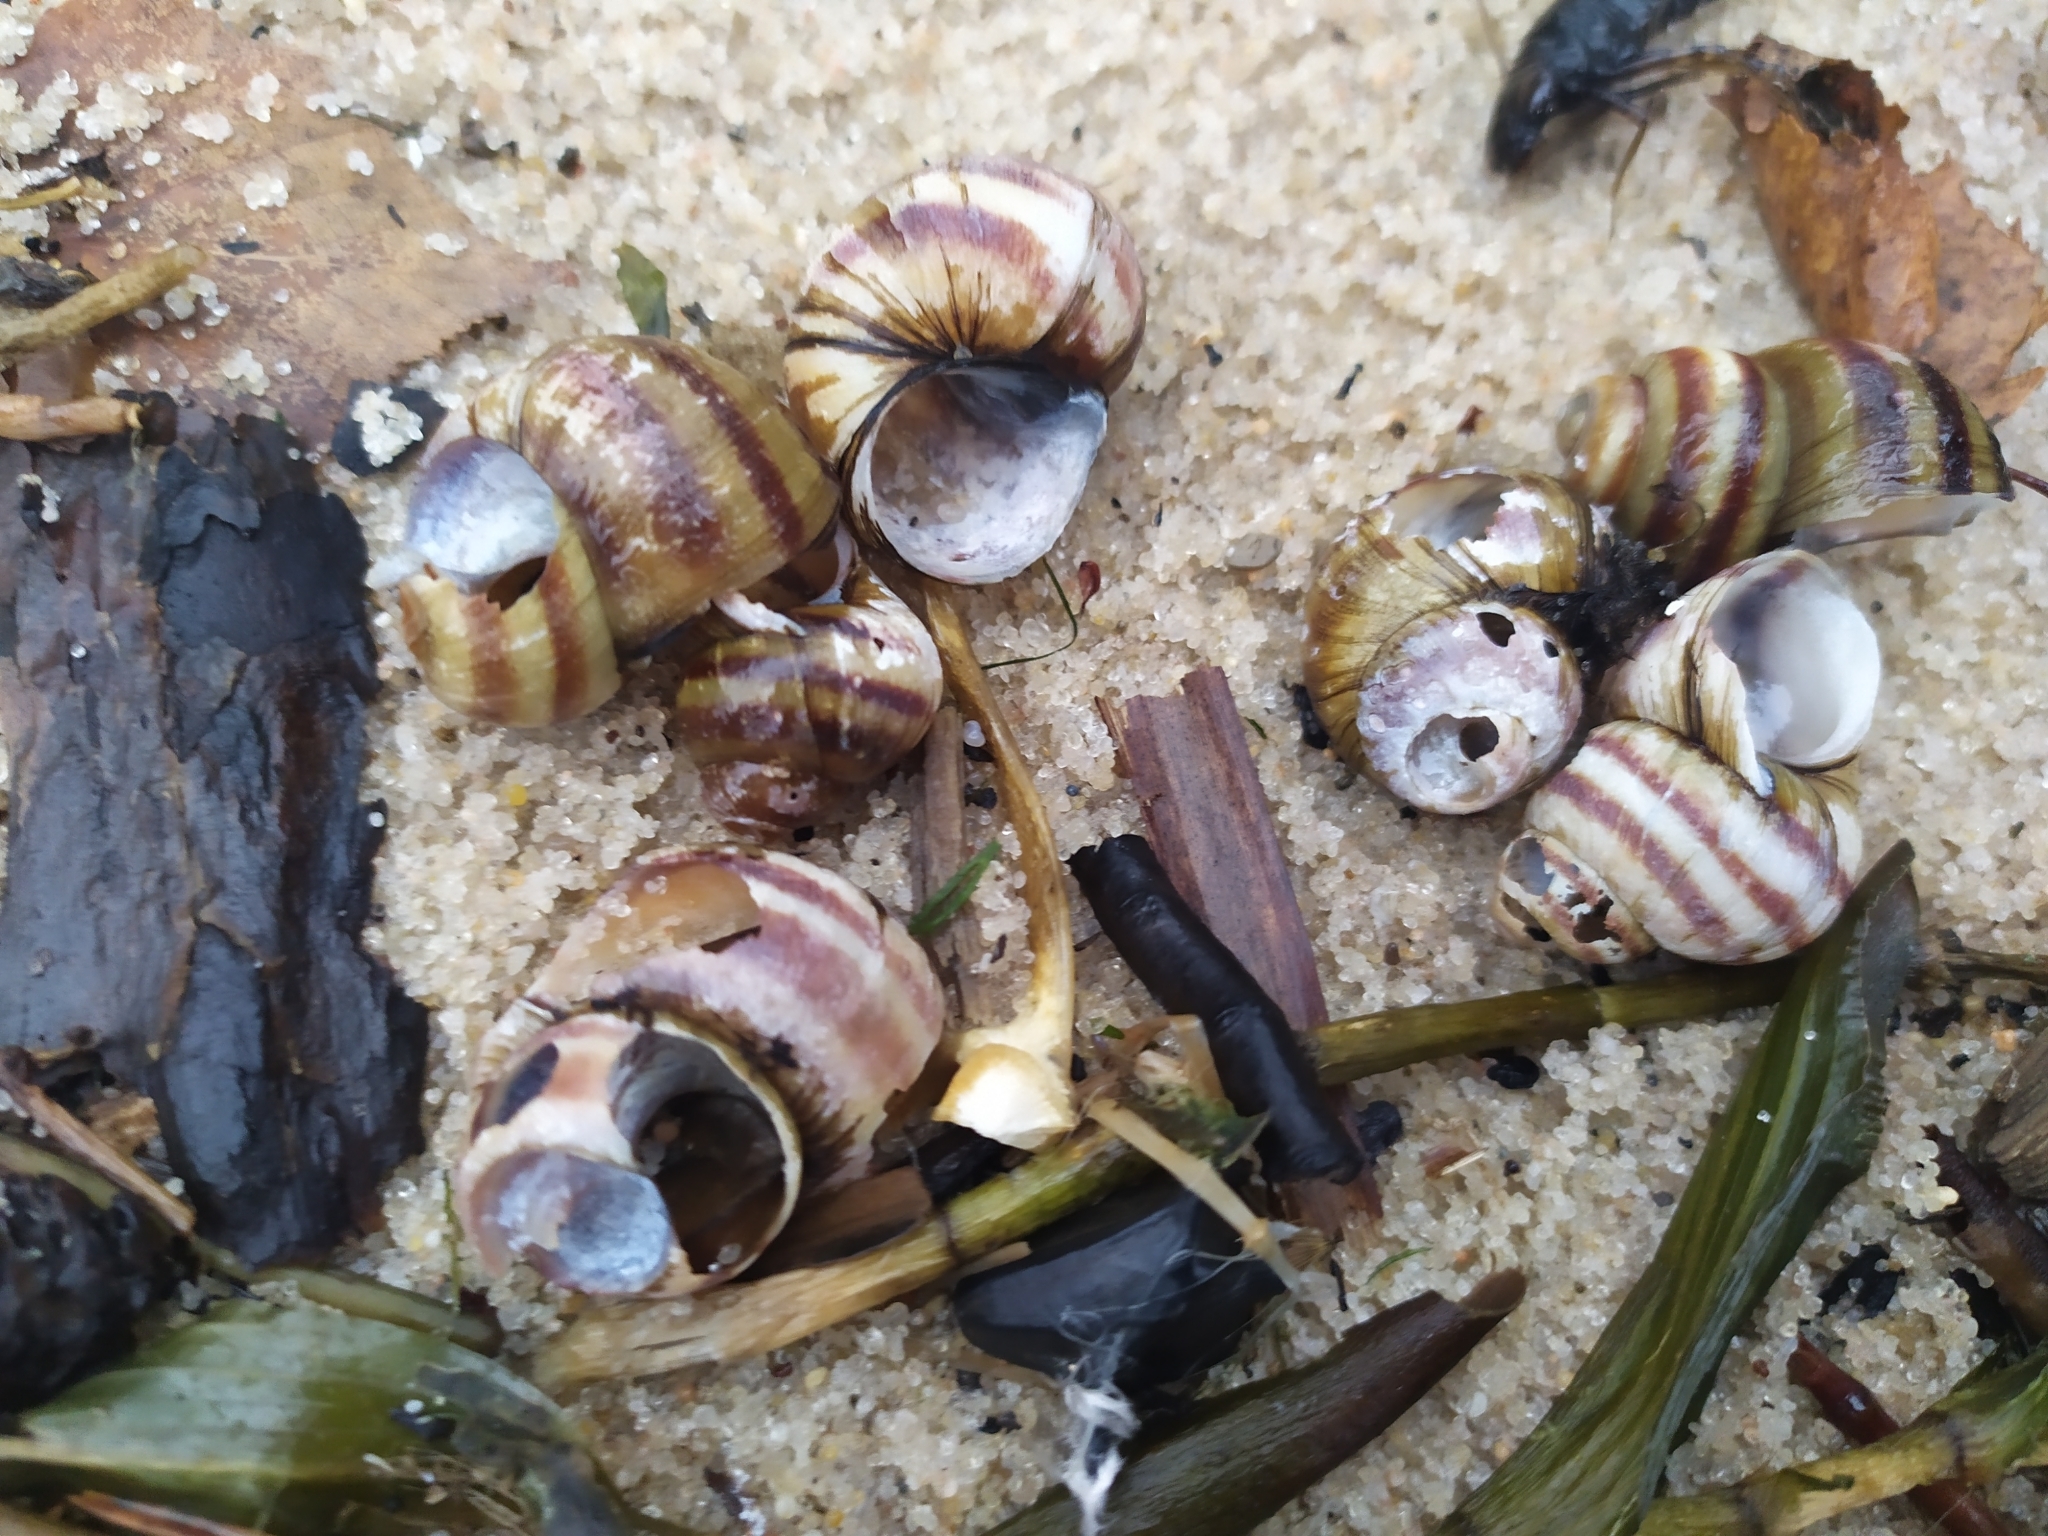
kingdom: Animalia
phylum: Mollusca
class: Gastropoda
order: Architaenioglossa
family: Viviparidae
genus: Viviparus
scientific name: Viviparus viviparus
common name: River snail
